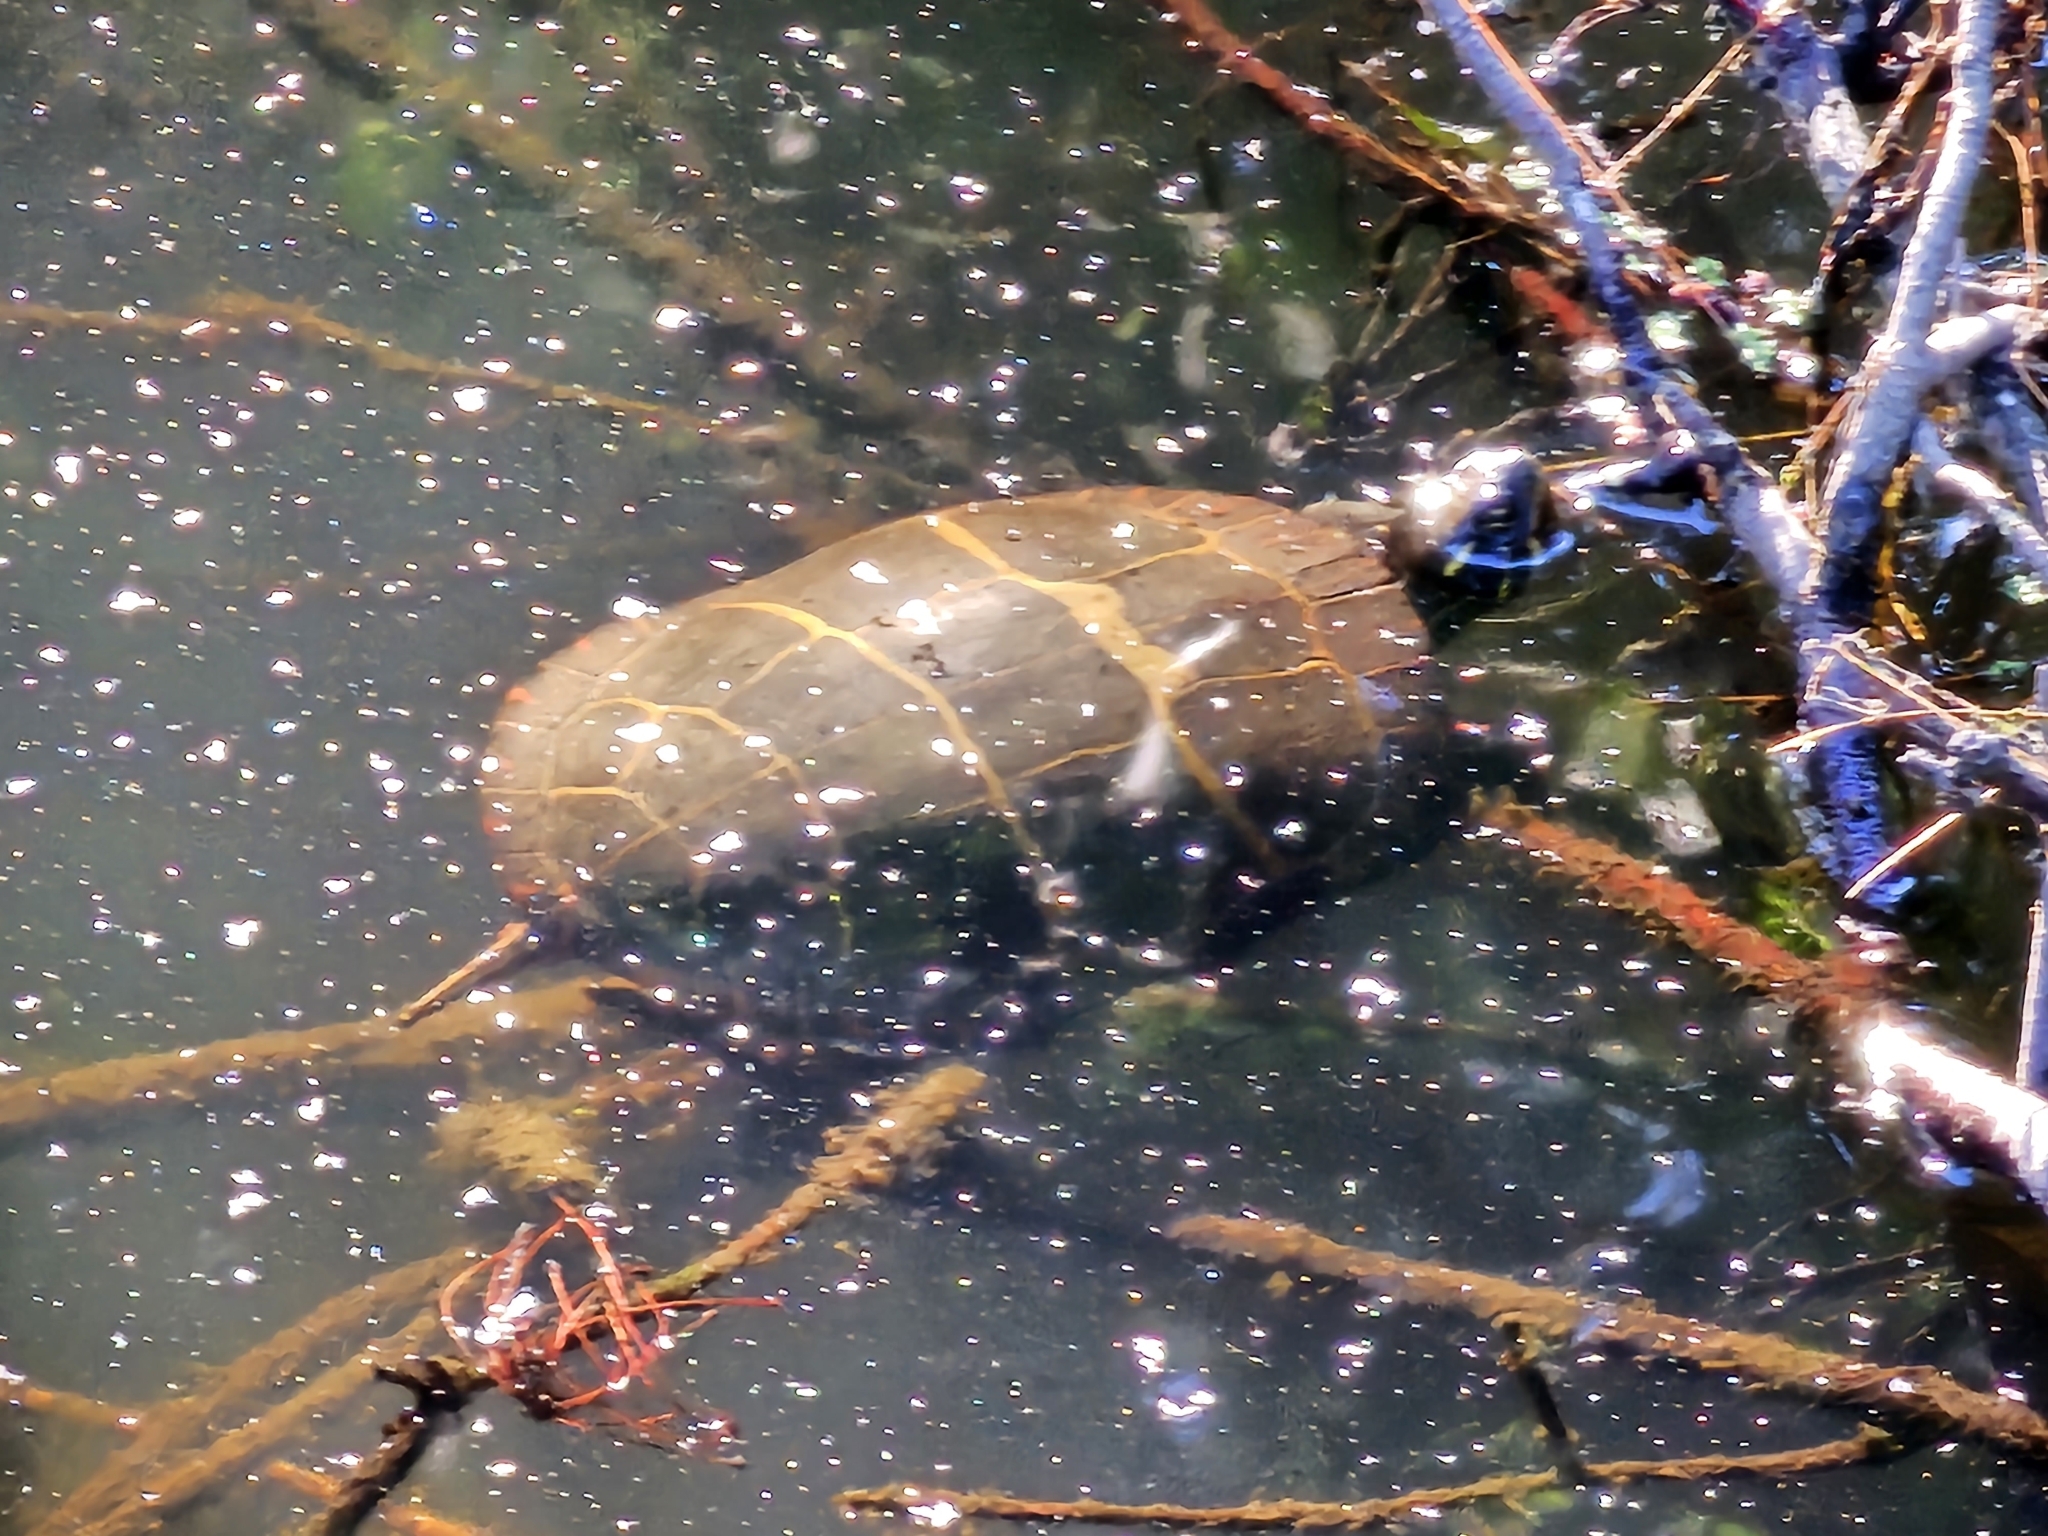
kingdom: Animalia
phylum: Chordata
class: Testudines
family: Emydidae
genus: Chrysemys
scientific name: Chrysemys picta
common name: Painted turtle
